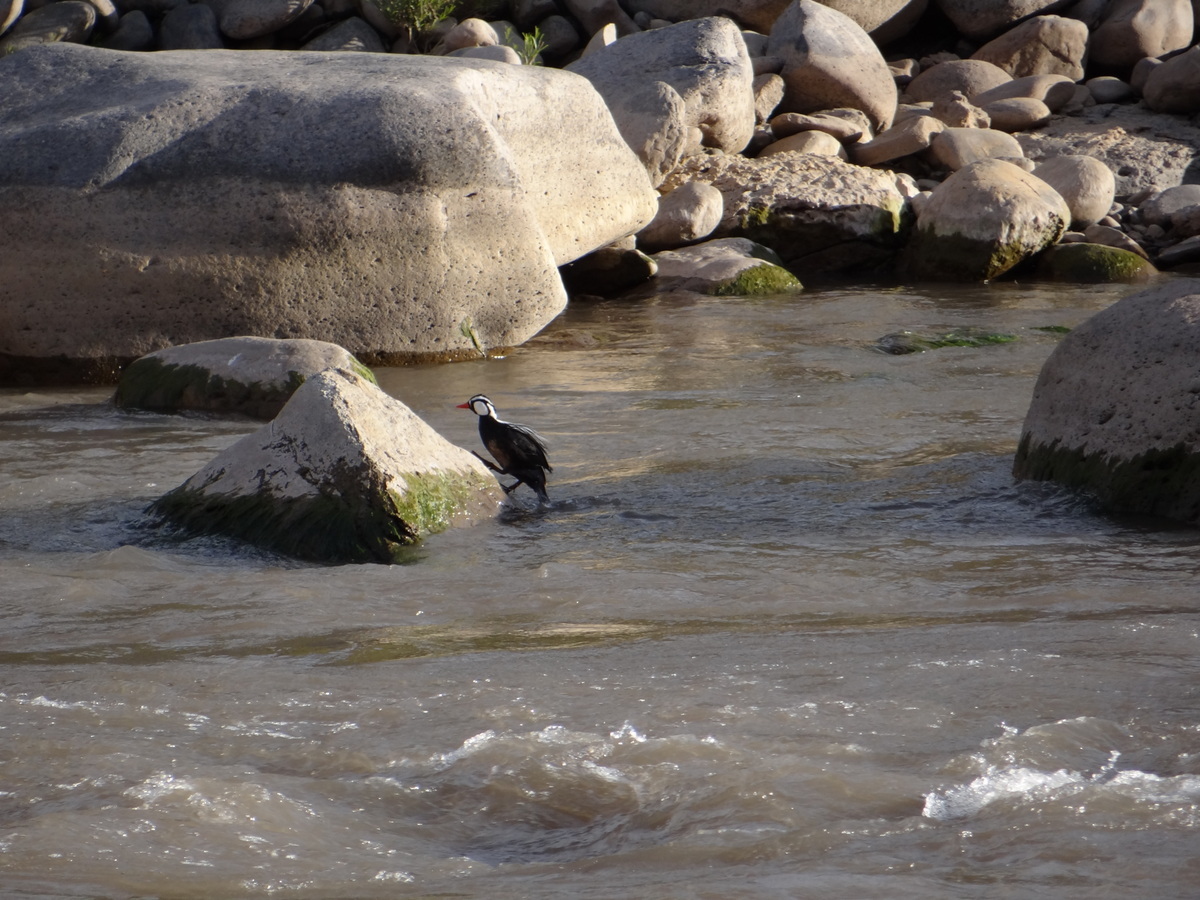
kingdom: Animalia
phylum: Chordata
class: Aves
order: Anseriformes
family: Anatidae
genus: Merganetta
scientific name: Merganetta armata
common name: Torrent duck
